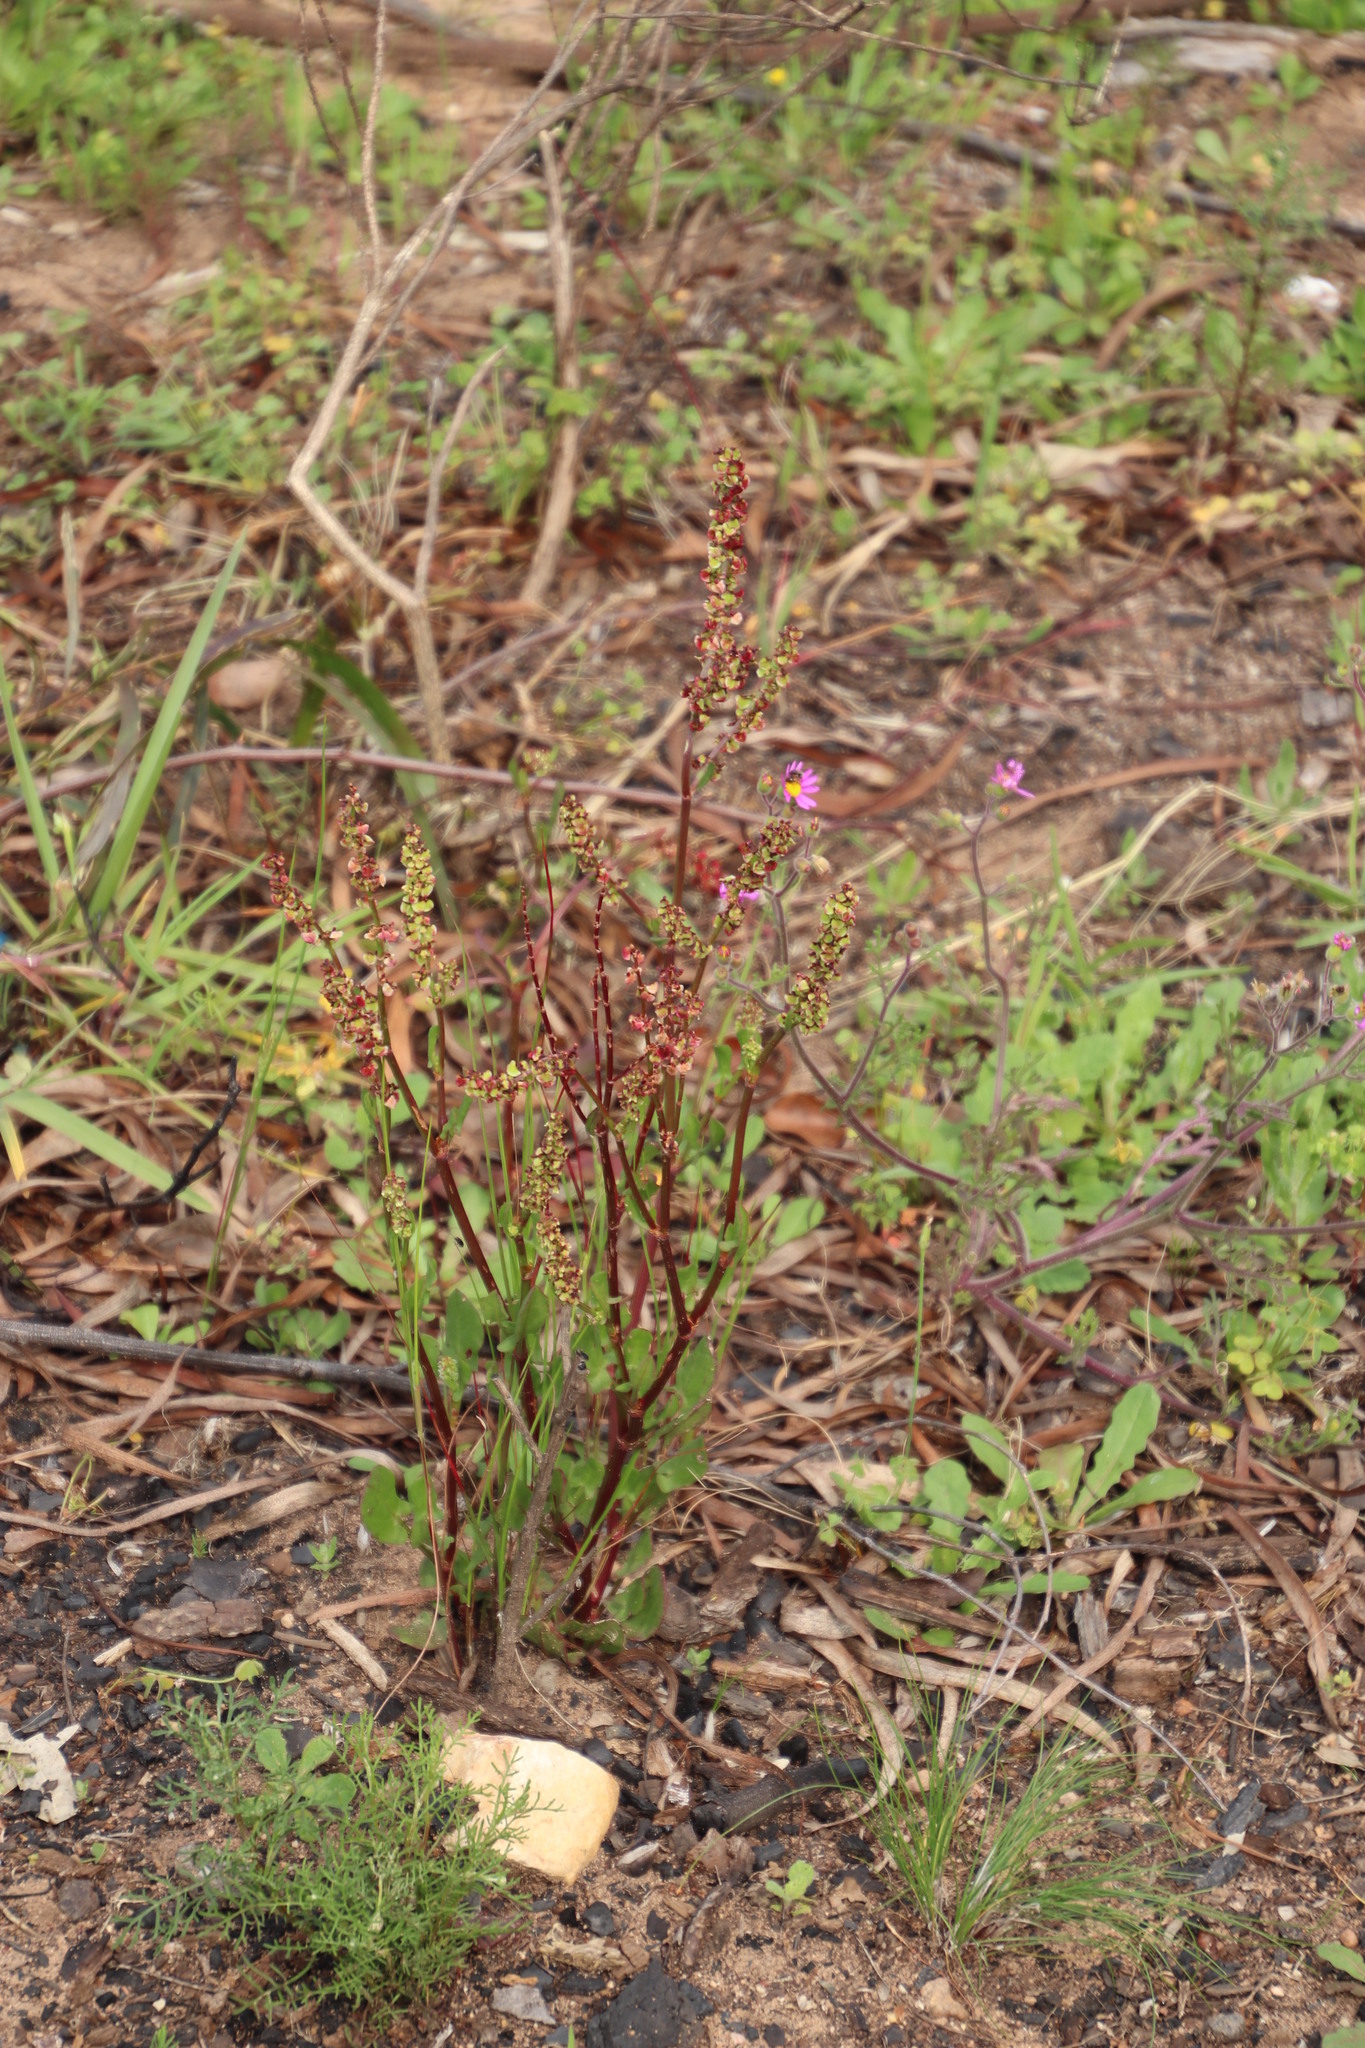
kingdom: Plantae
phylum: Tracheophyta
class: Magnoliopsida
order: Caryophyllales
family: Polygonaceae
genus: Rumex
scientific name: Rumex lativalvis
